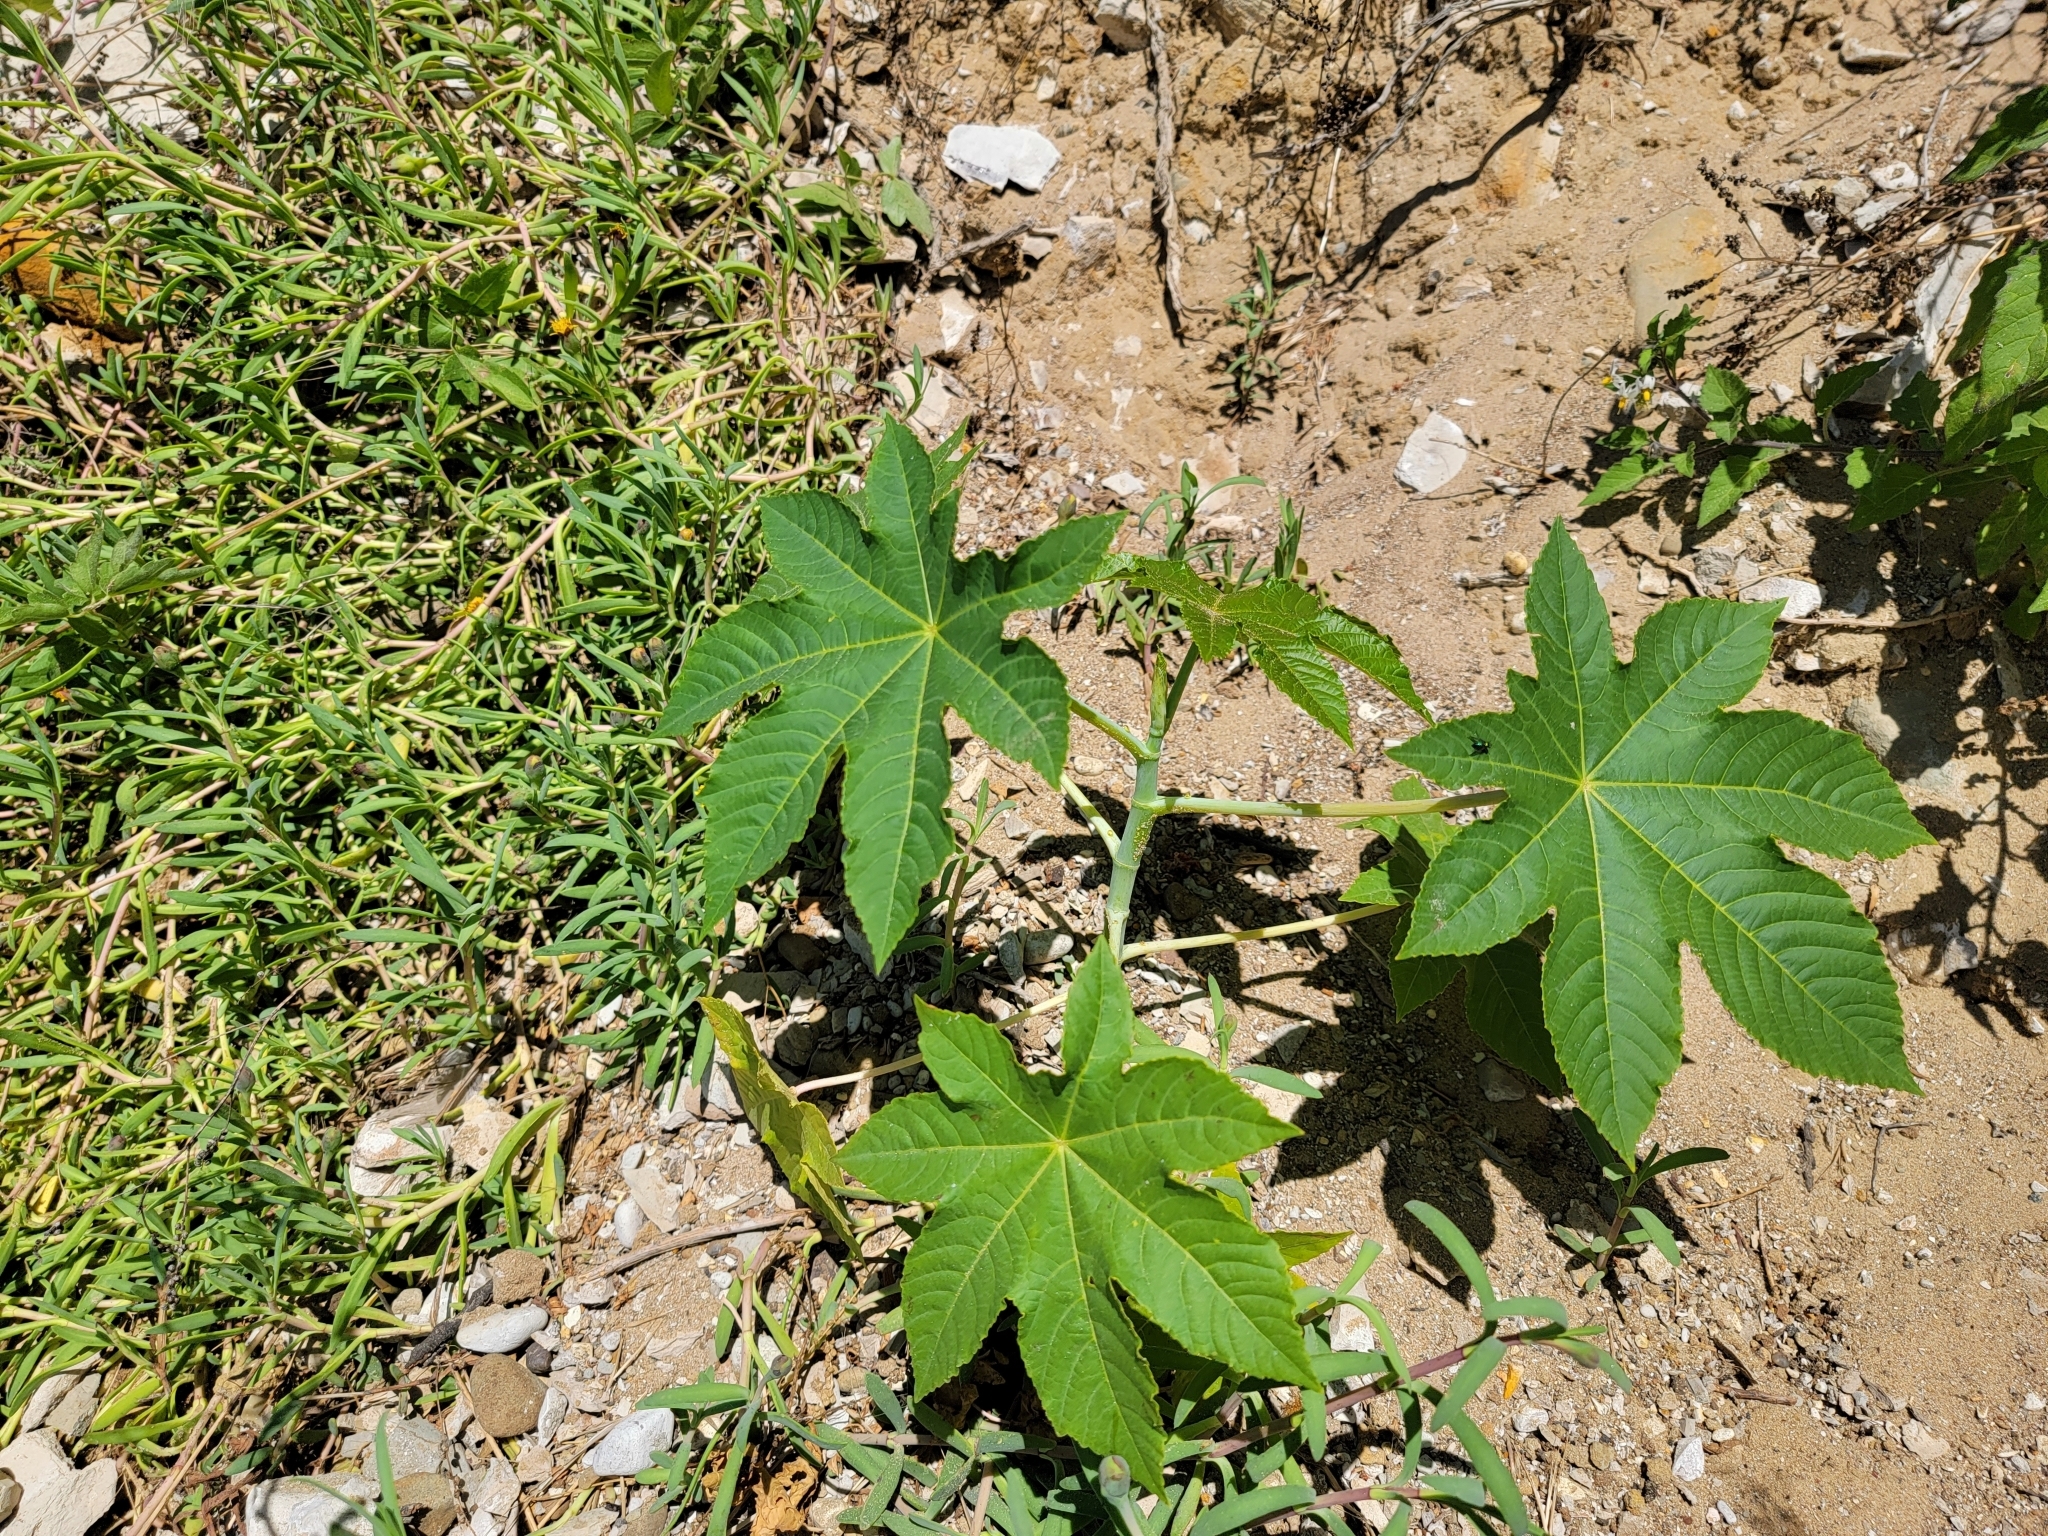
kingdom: Plantae
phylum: Tracheophyta
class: Magnoliopsida
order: Malpighiales
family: Euphorbiaceae
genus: Ricinus
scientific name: Ricinus communis
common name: Castor-oil-plant
